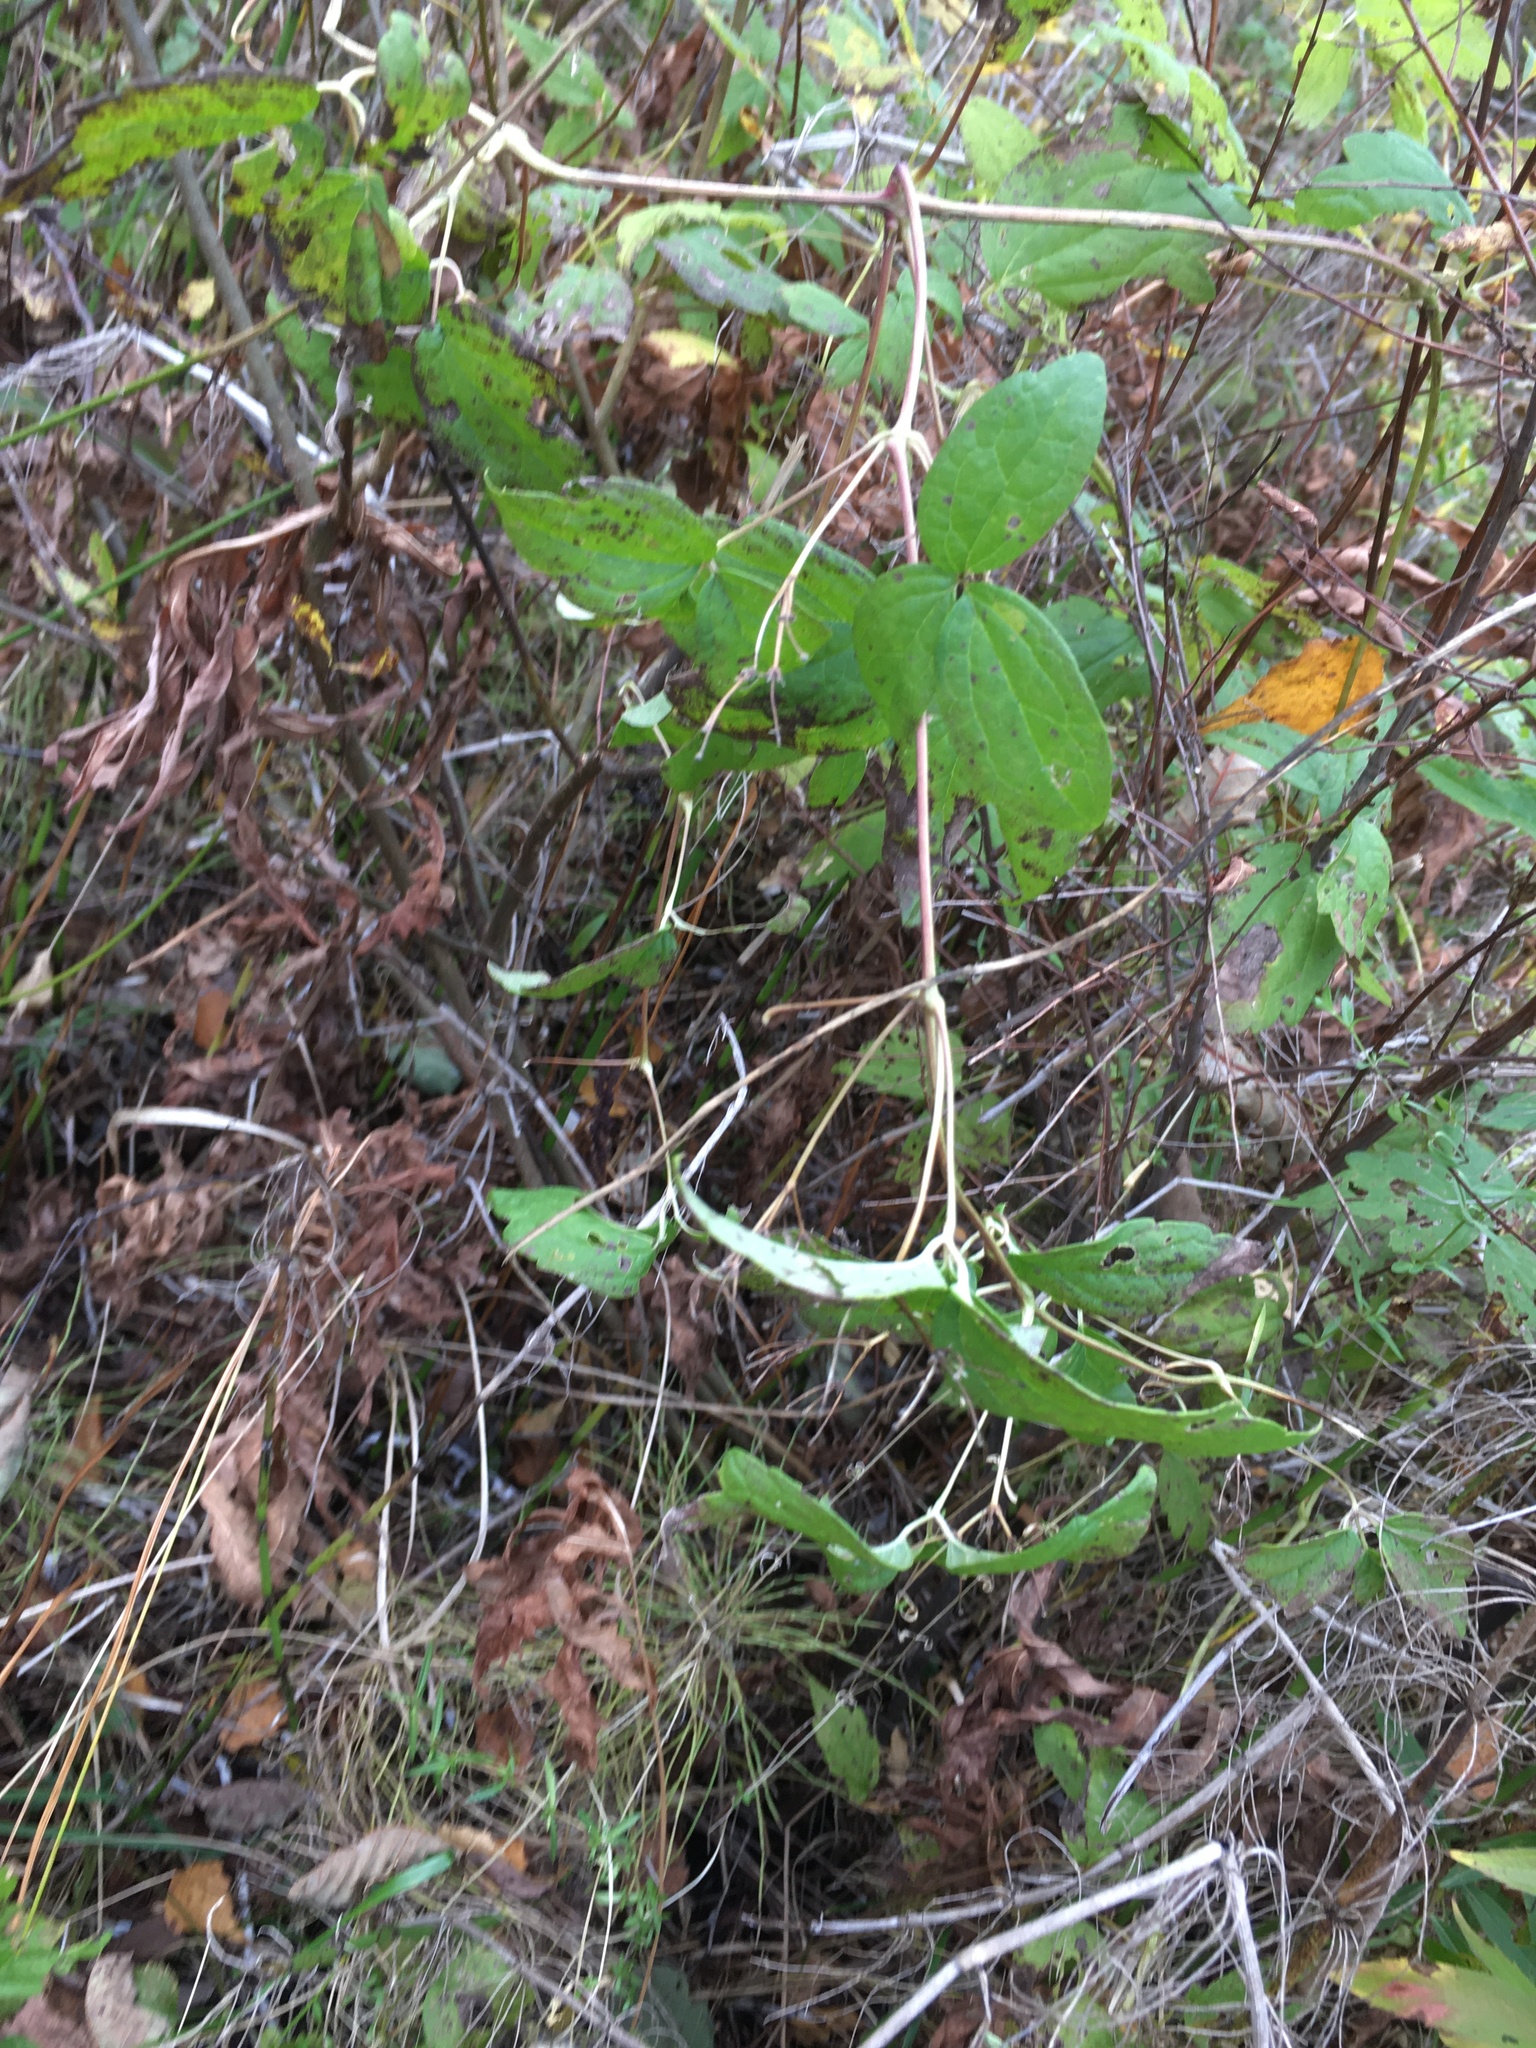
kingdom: Plantae
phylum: Tracheophyta
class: Magnoliopsida
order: Ranunculales
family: Ranunculaceae
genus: Clematis
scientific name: Clematis virginiana
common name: Virgin's-bower
